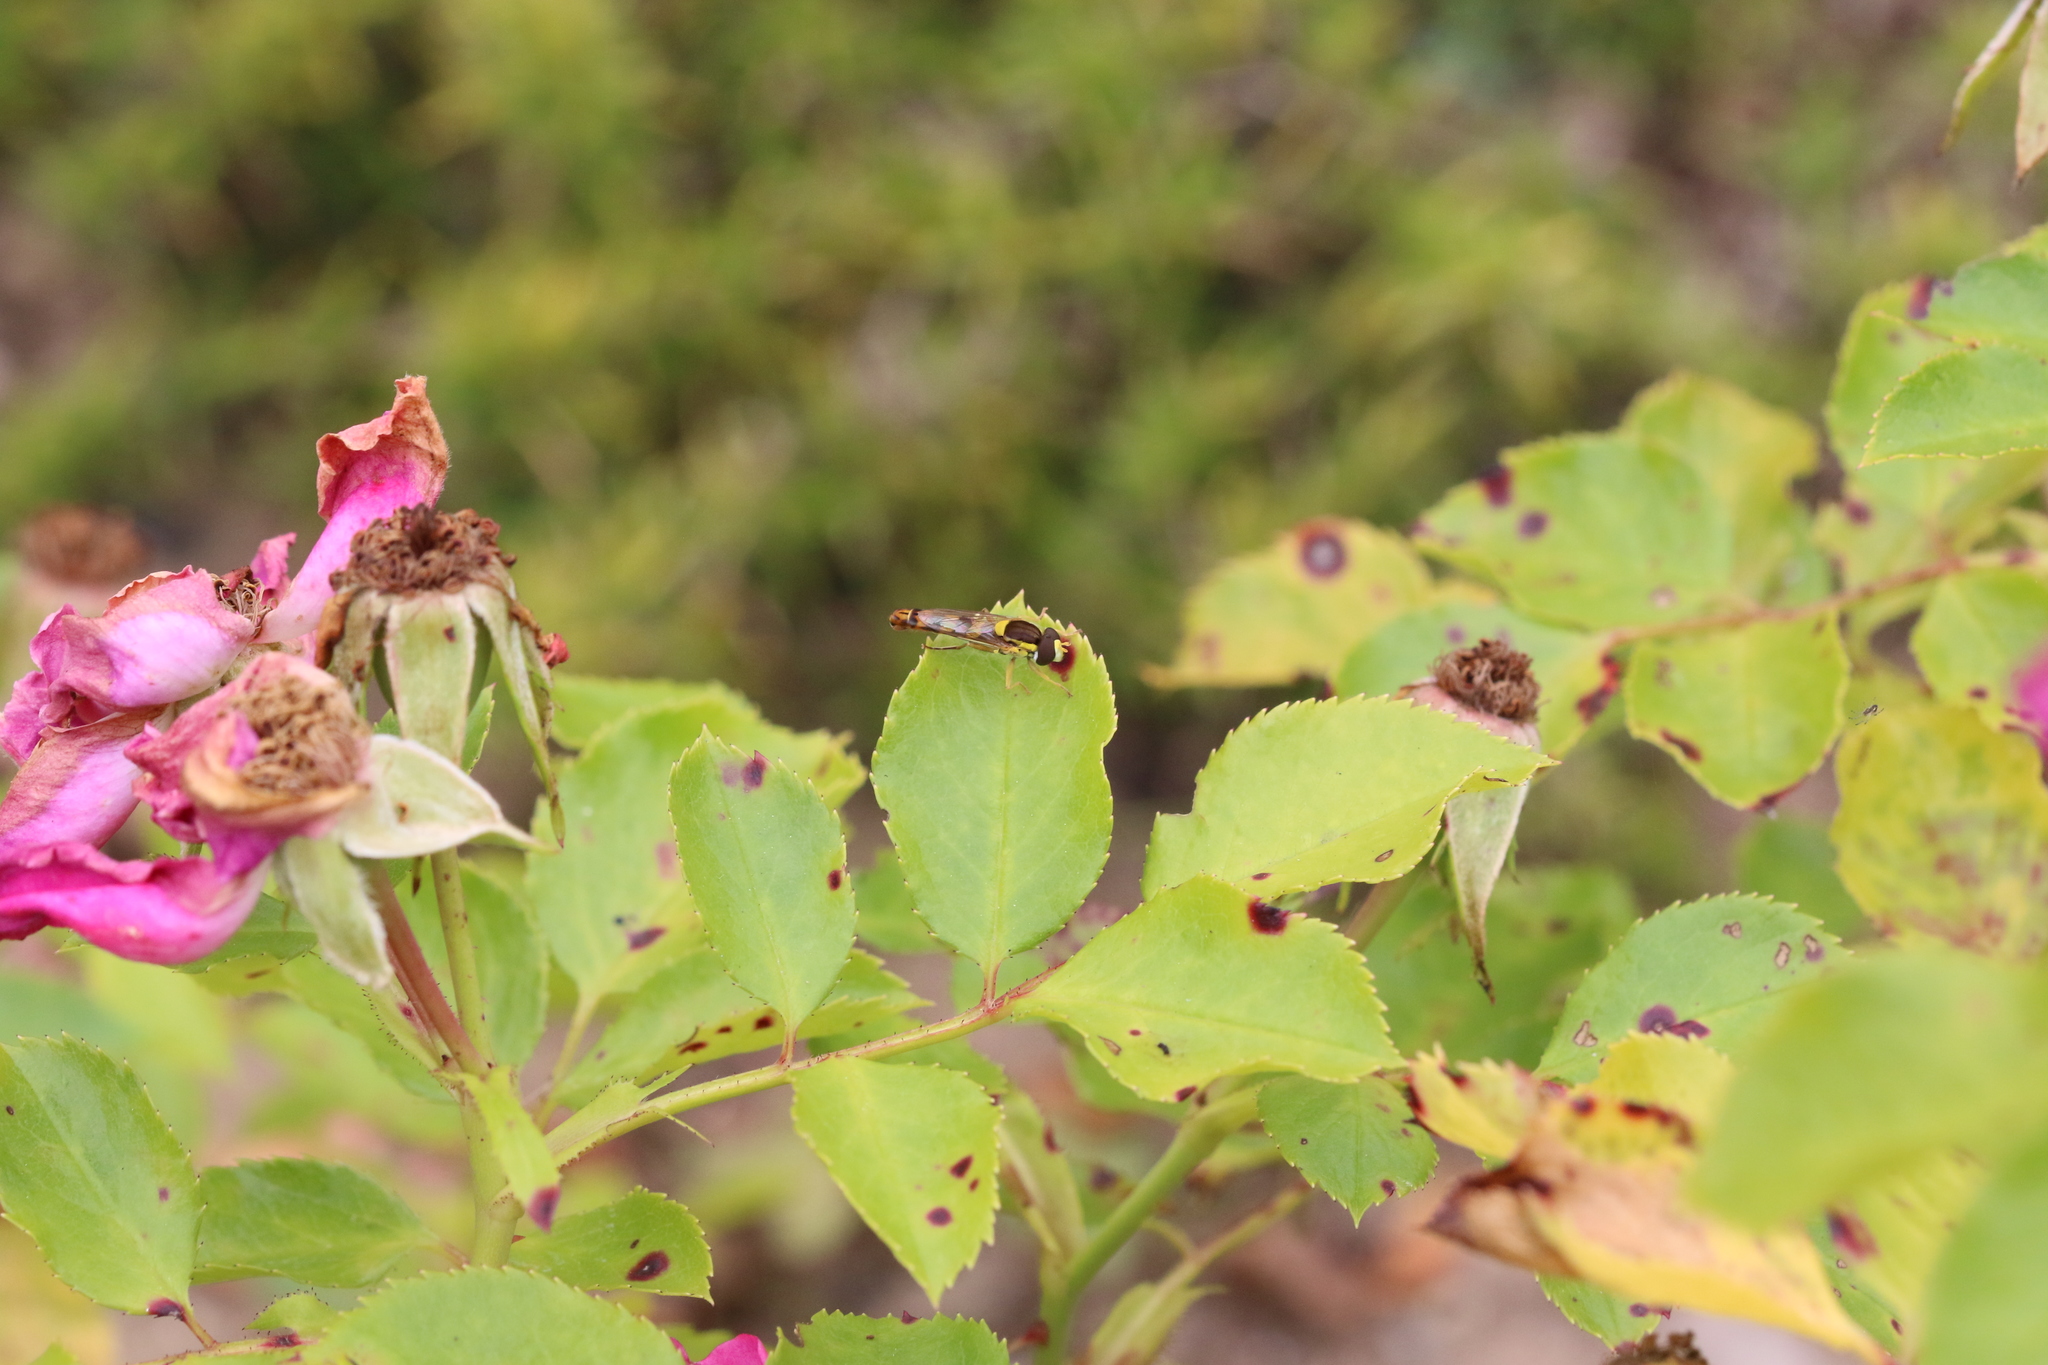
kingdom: Animalia
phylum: Arthropoda
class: Insecta
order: Diptera
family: Syrphidae
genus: Sphaerophoria
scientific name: Sphaerophoria scripta
